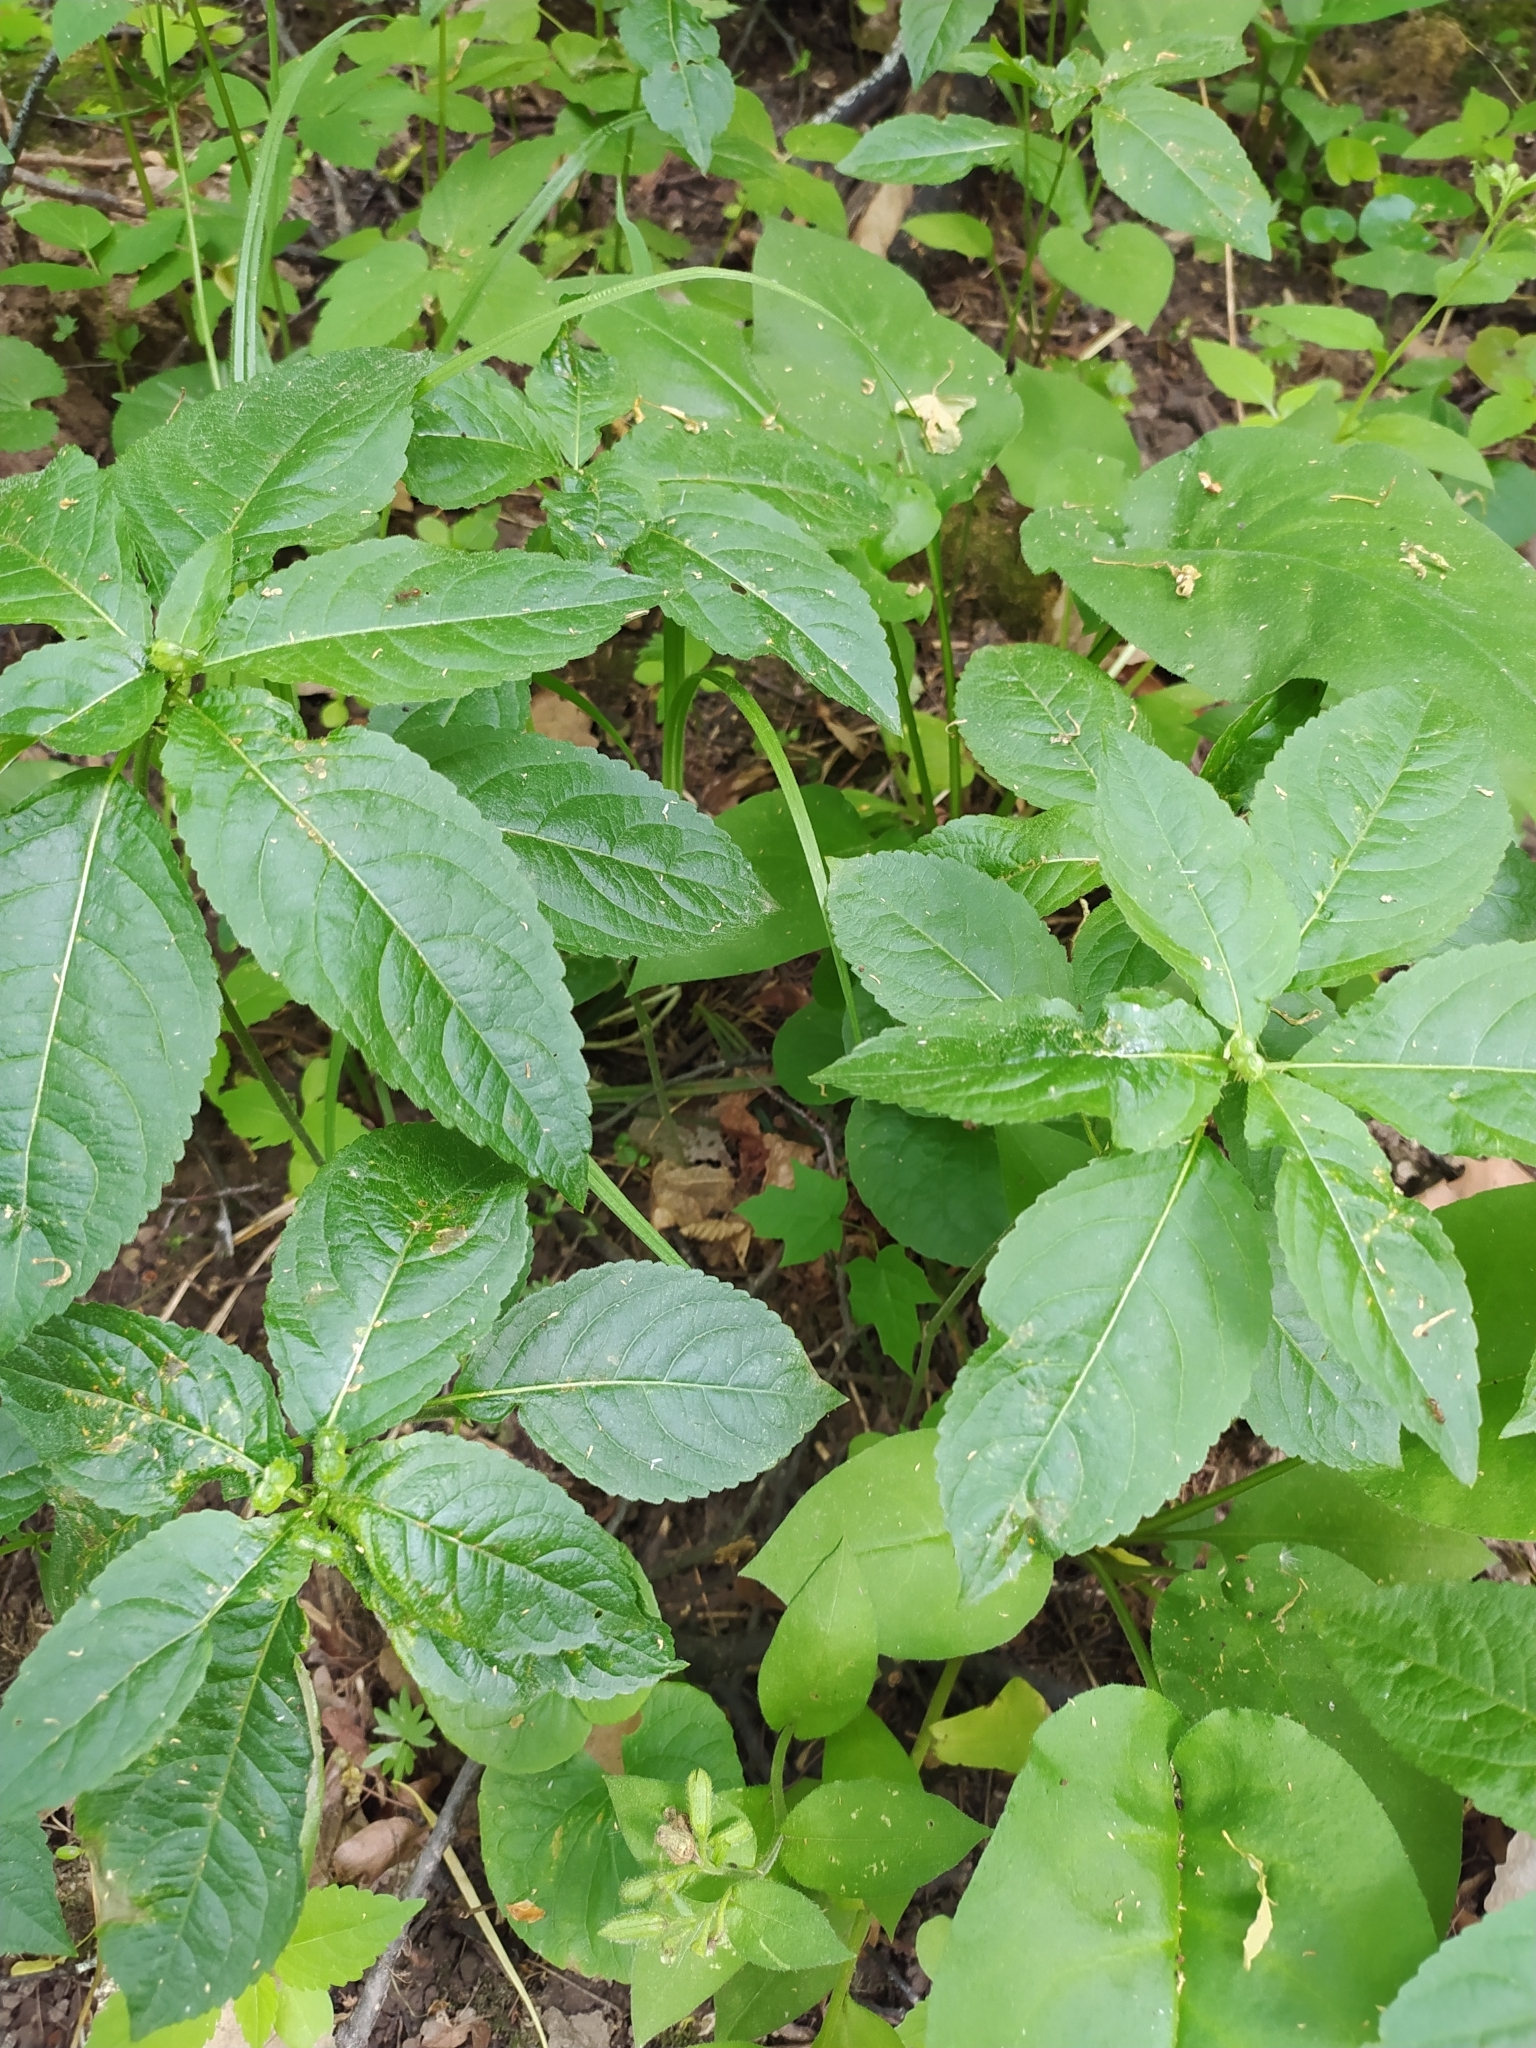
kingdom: Plantae
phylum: Tracheophyta
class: Magnoliopsida
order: Malpighiales
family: Euphorbiaceae
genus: Mercurialis
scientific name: Mercurialis perennis
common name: Dog mercury
